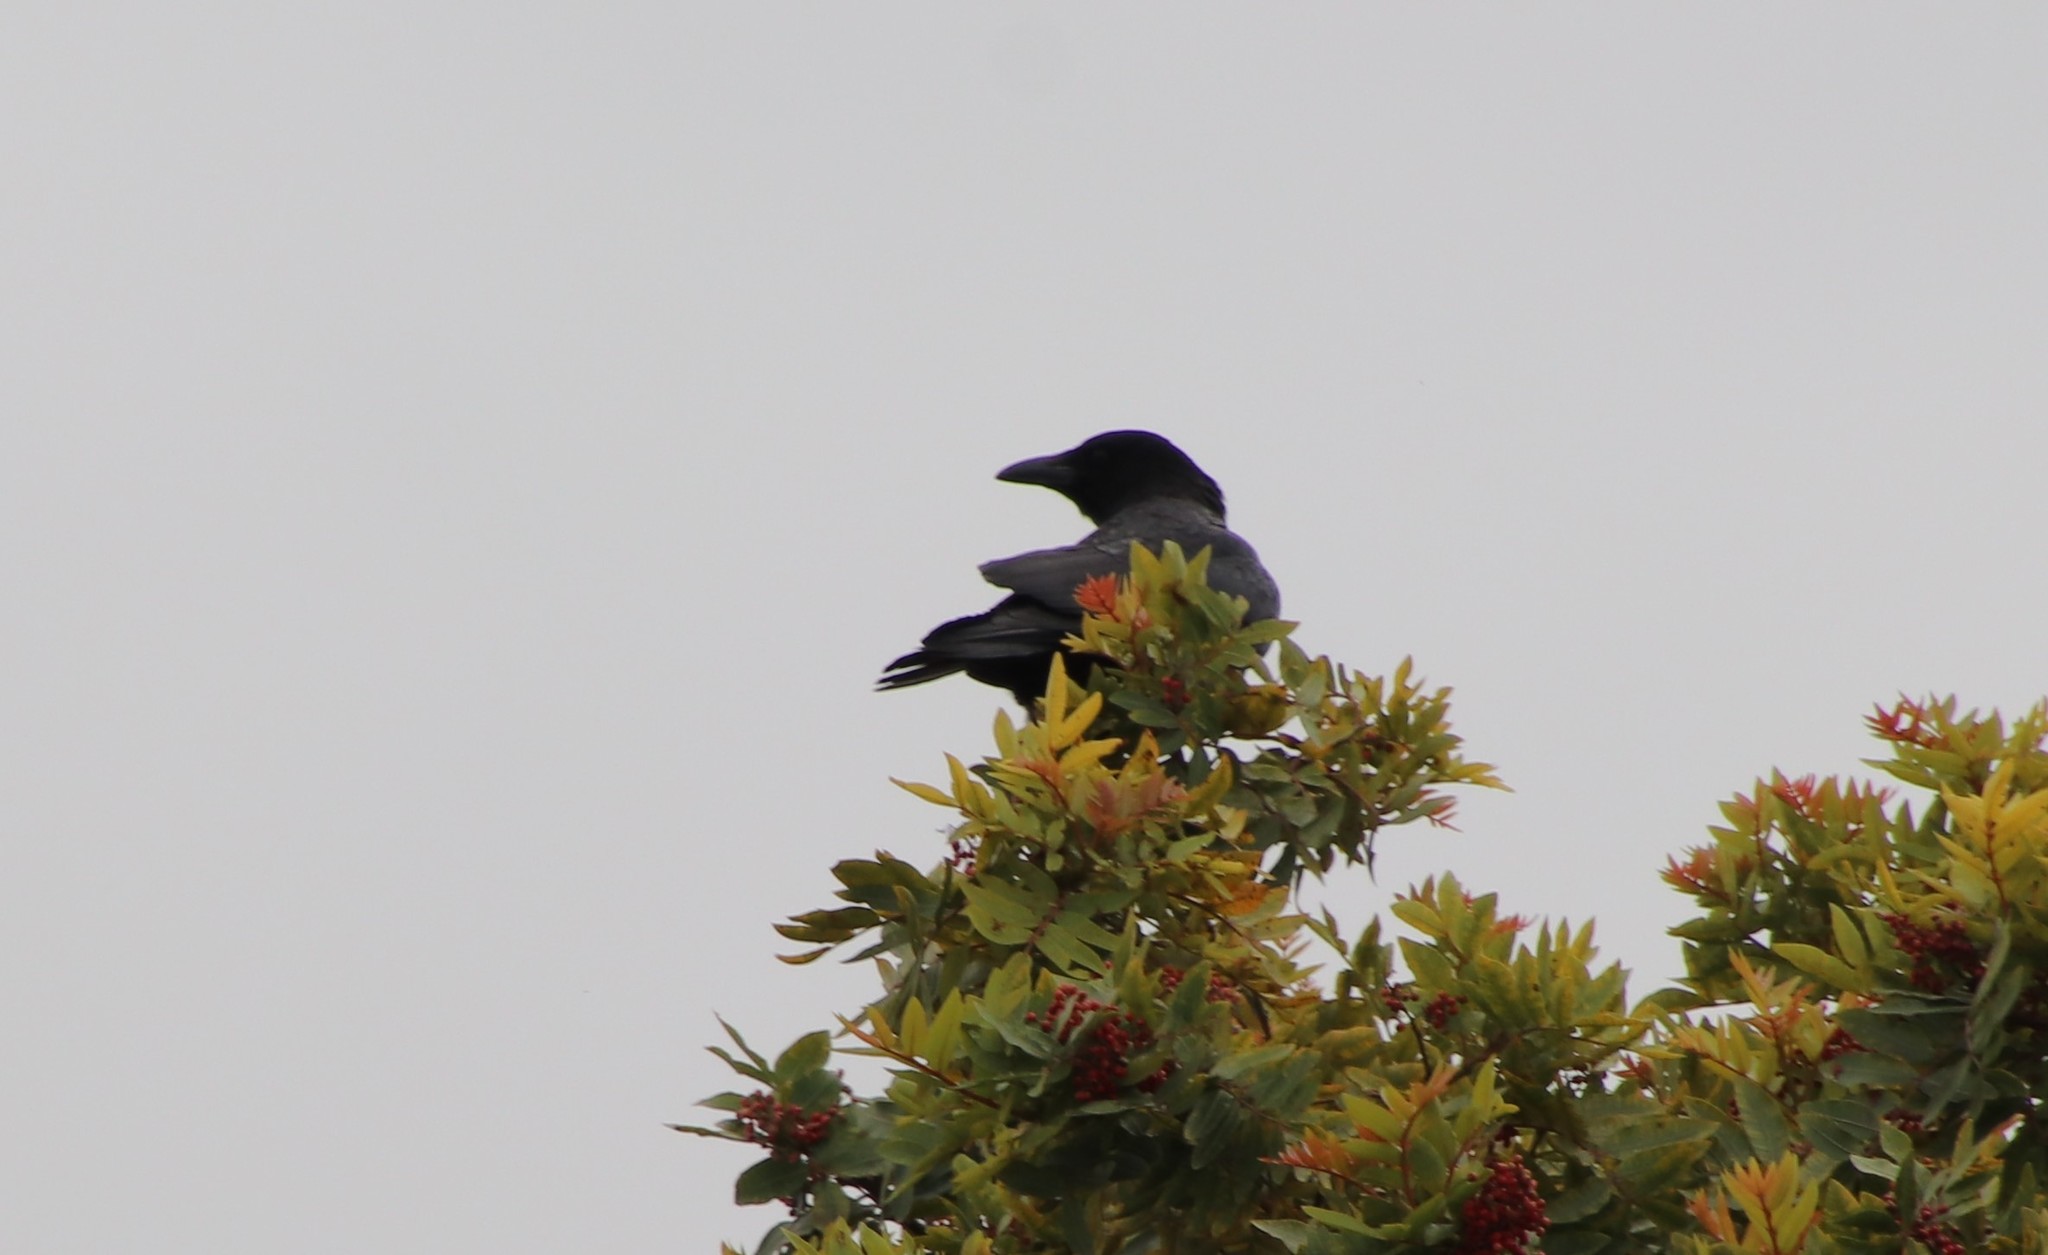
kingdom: Animalia
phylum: Chordata
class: Aves
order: Passeriformes
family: Corvidae
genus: Corvus
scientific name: Corvus brachyrhynchos
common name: American crow
